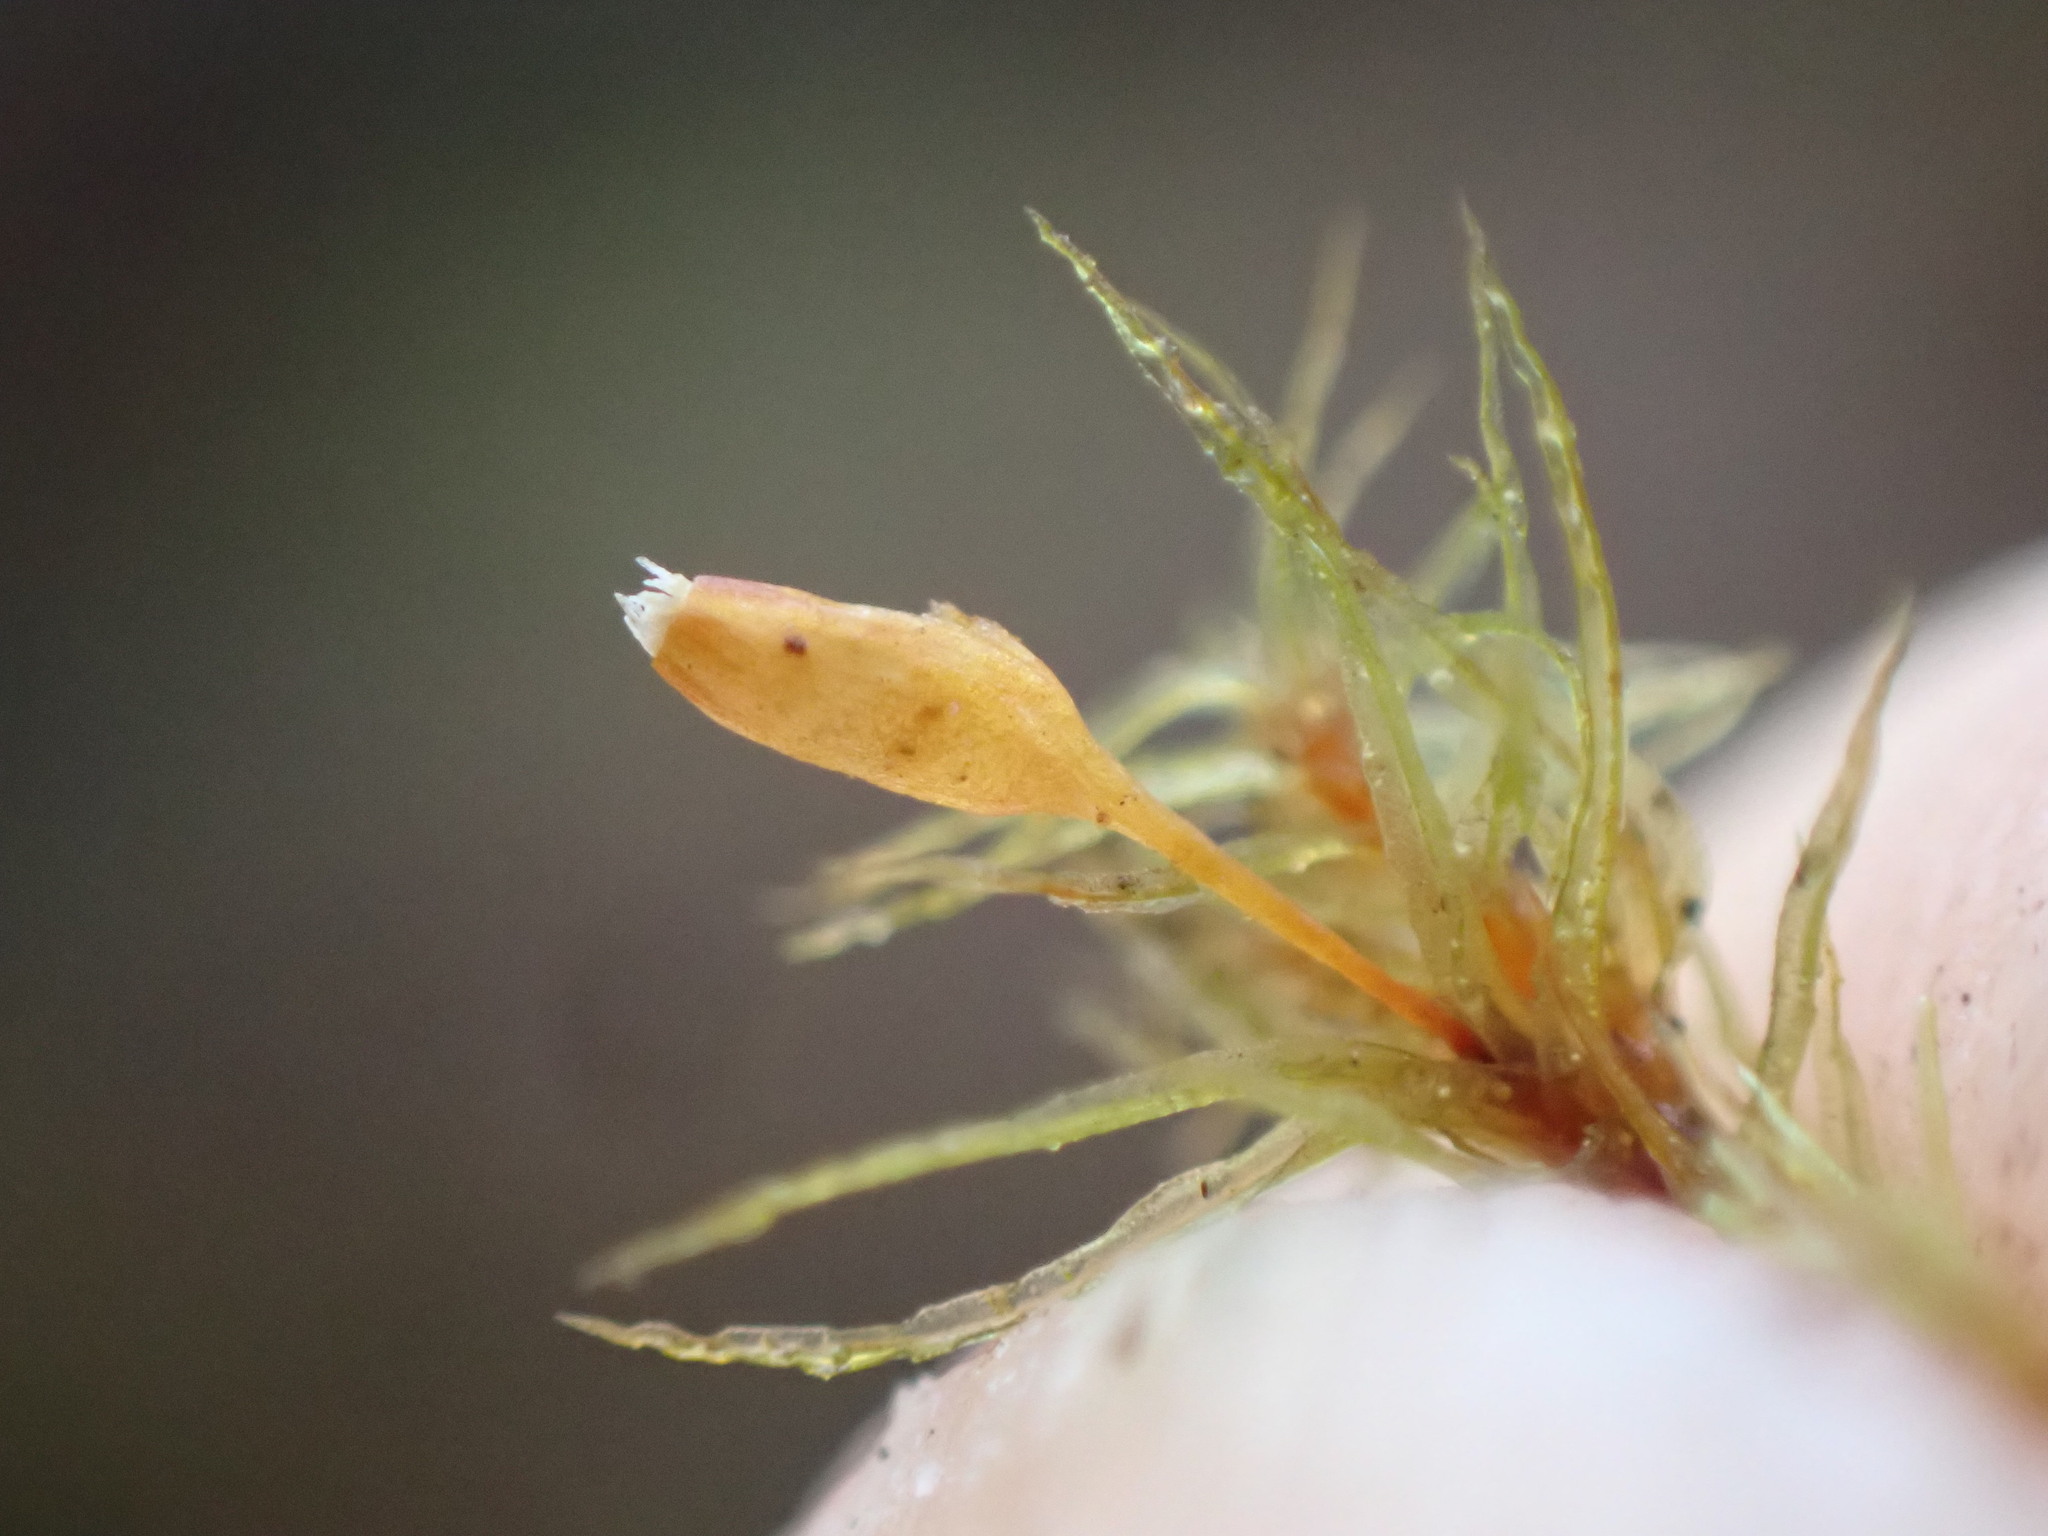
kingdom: Plantae
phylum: Bryophyta
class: Bryopsida
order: Orthotrichales
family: Orthotrichaceae
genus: Pulvigera
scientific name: Pulvigera pringlei
